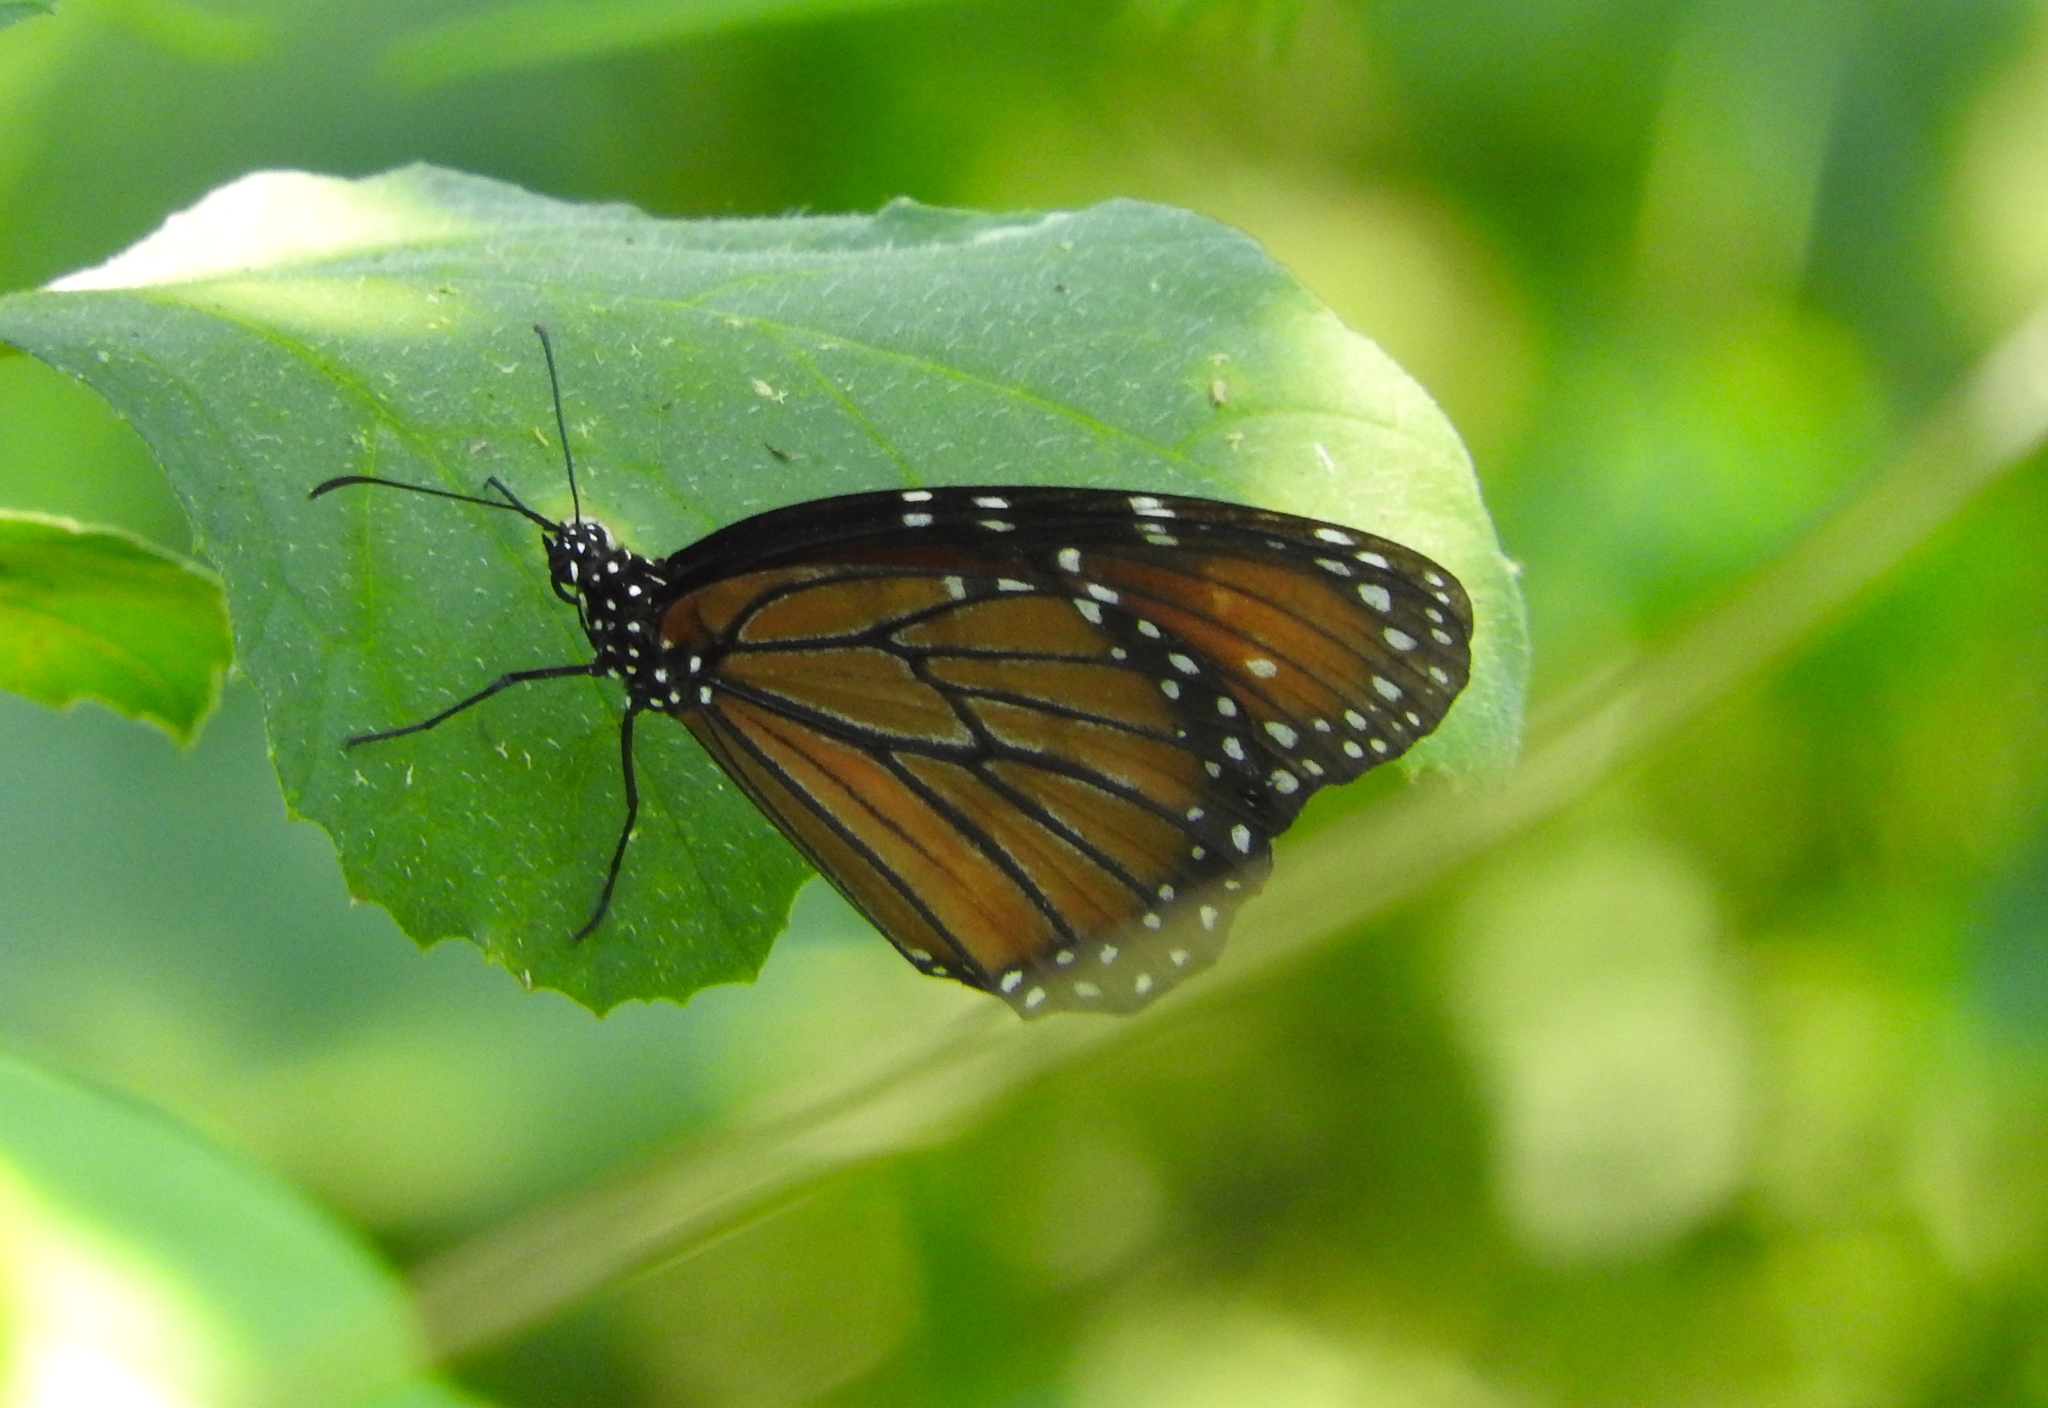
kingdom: Animalia
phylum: Arthropoda
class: Insecta
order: Lepidoptera
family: Nymphalidae
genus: Danaus
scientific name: Danaus eresimus
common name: Soldier
